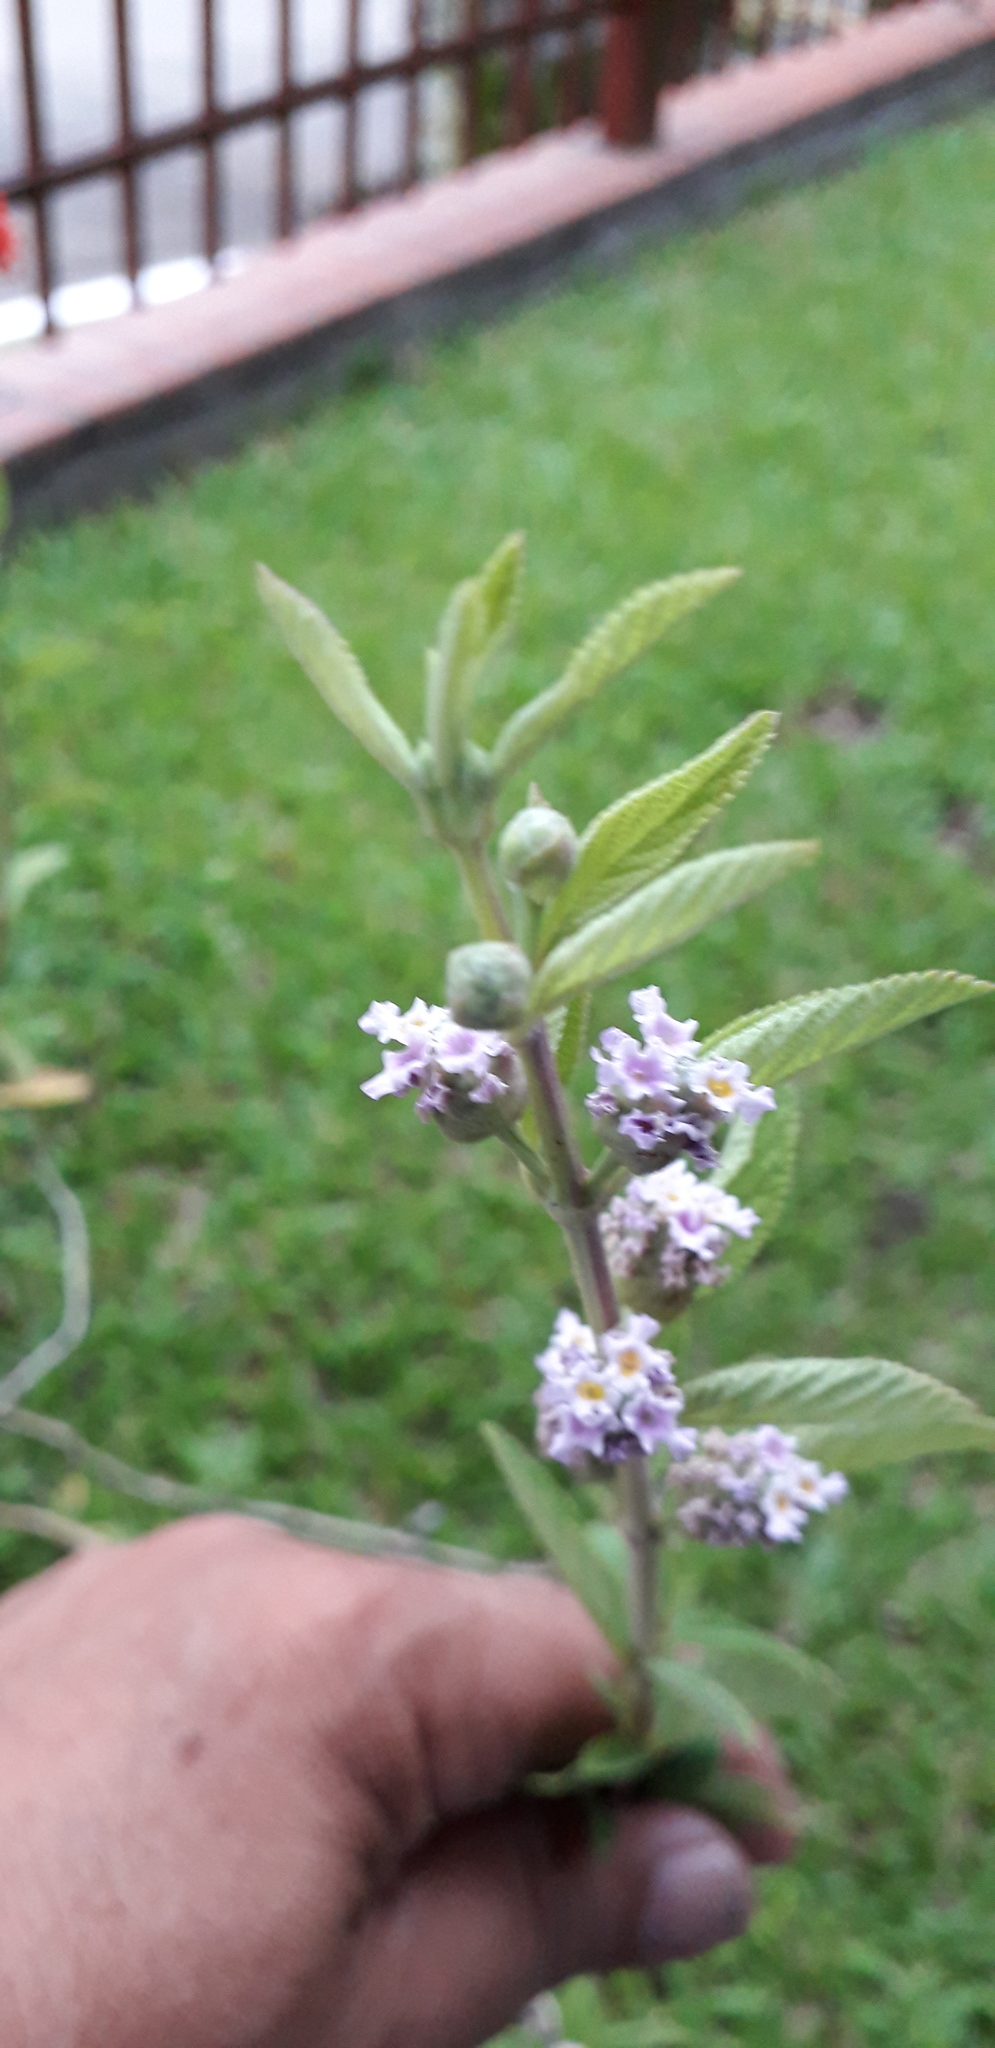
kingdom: Plantae
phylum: Tracheophyta
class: Magnoliopsida
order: Lamiales
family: Lamiaceae
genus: Mentha
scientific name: Mentha spicata
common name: Spearmint
